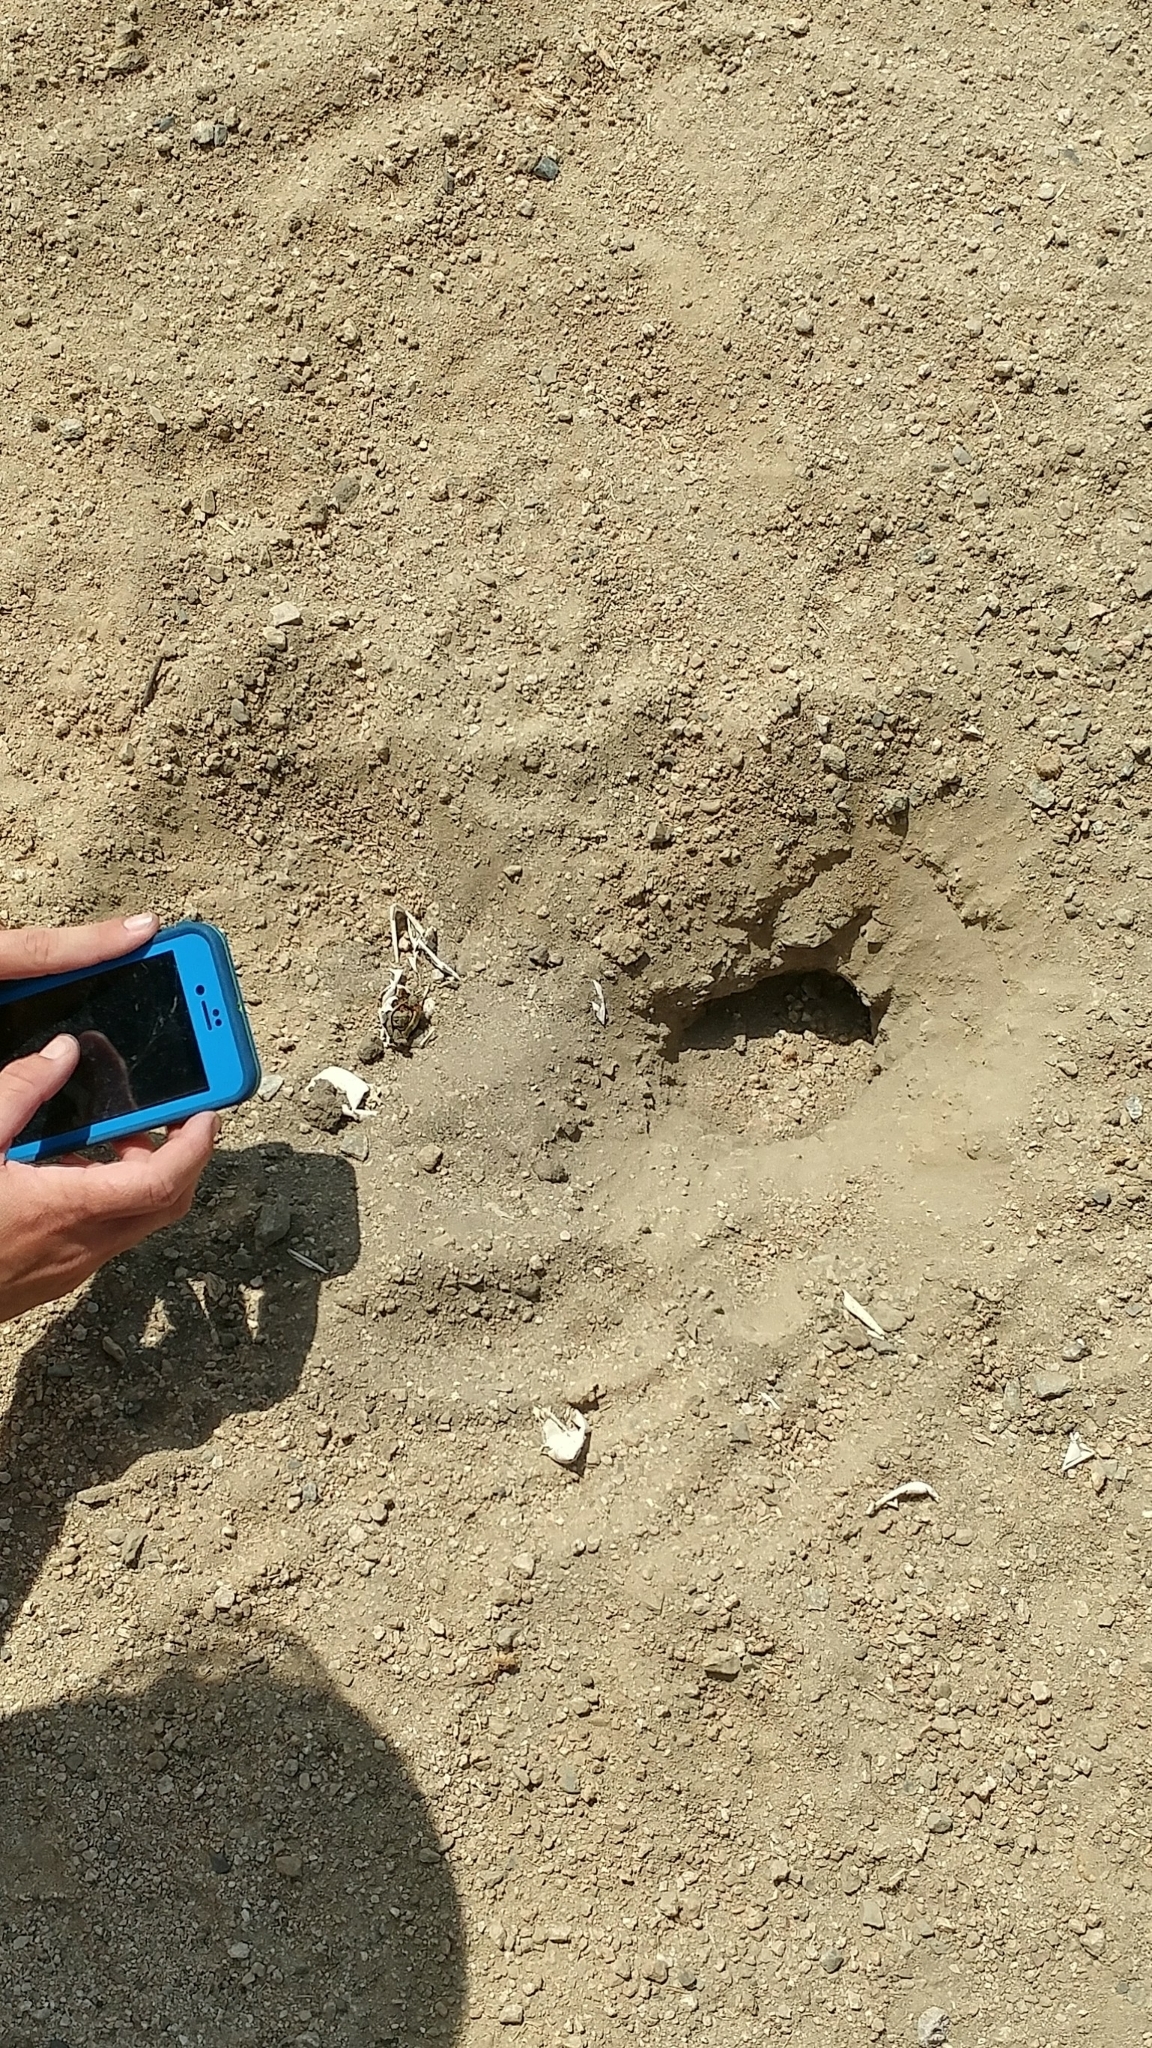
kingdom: Animalia
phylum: Chordata
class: Testudines
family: Emydidae
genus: Trachemys
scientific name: Trachemys scripta
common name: Slider
